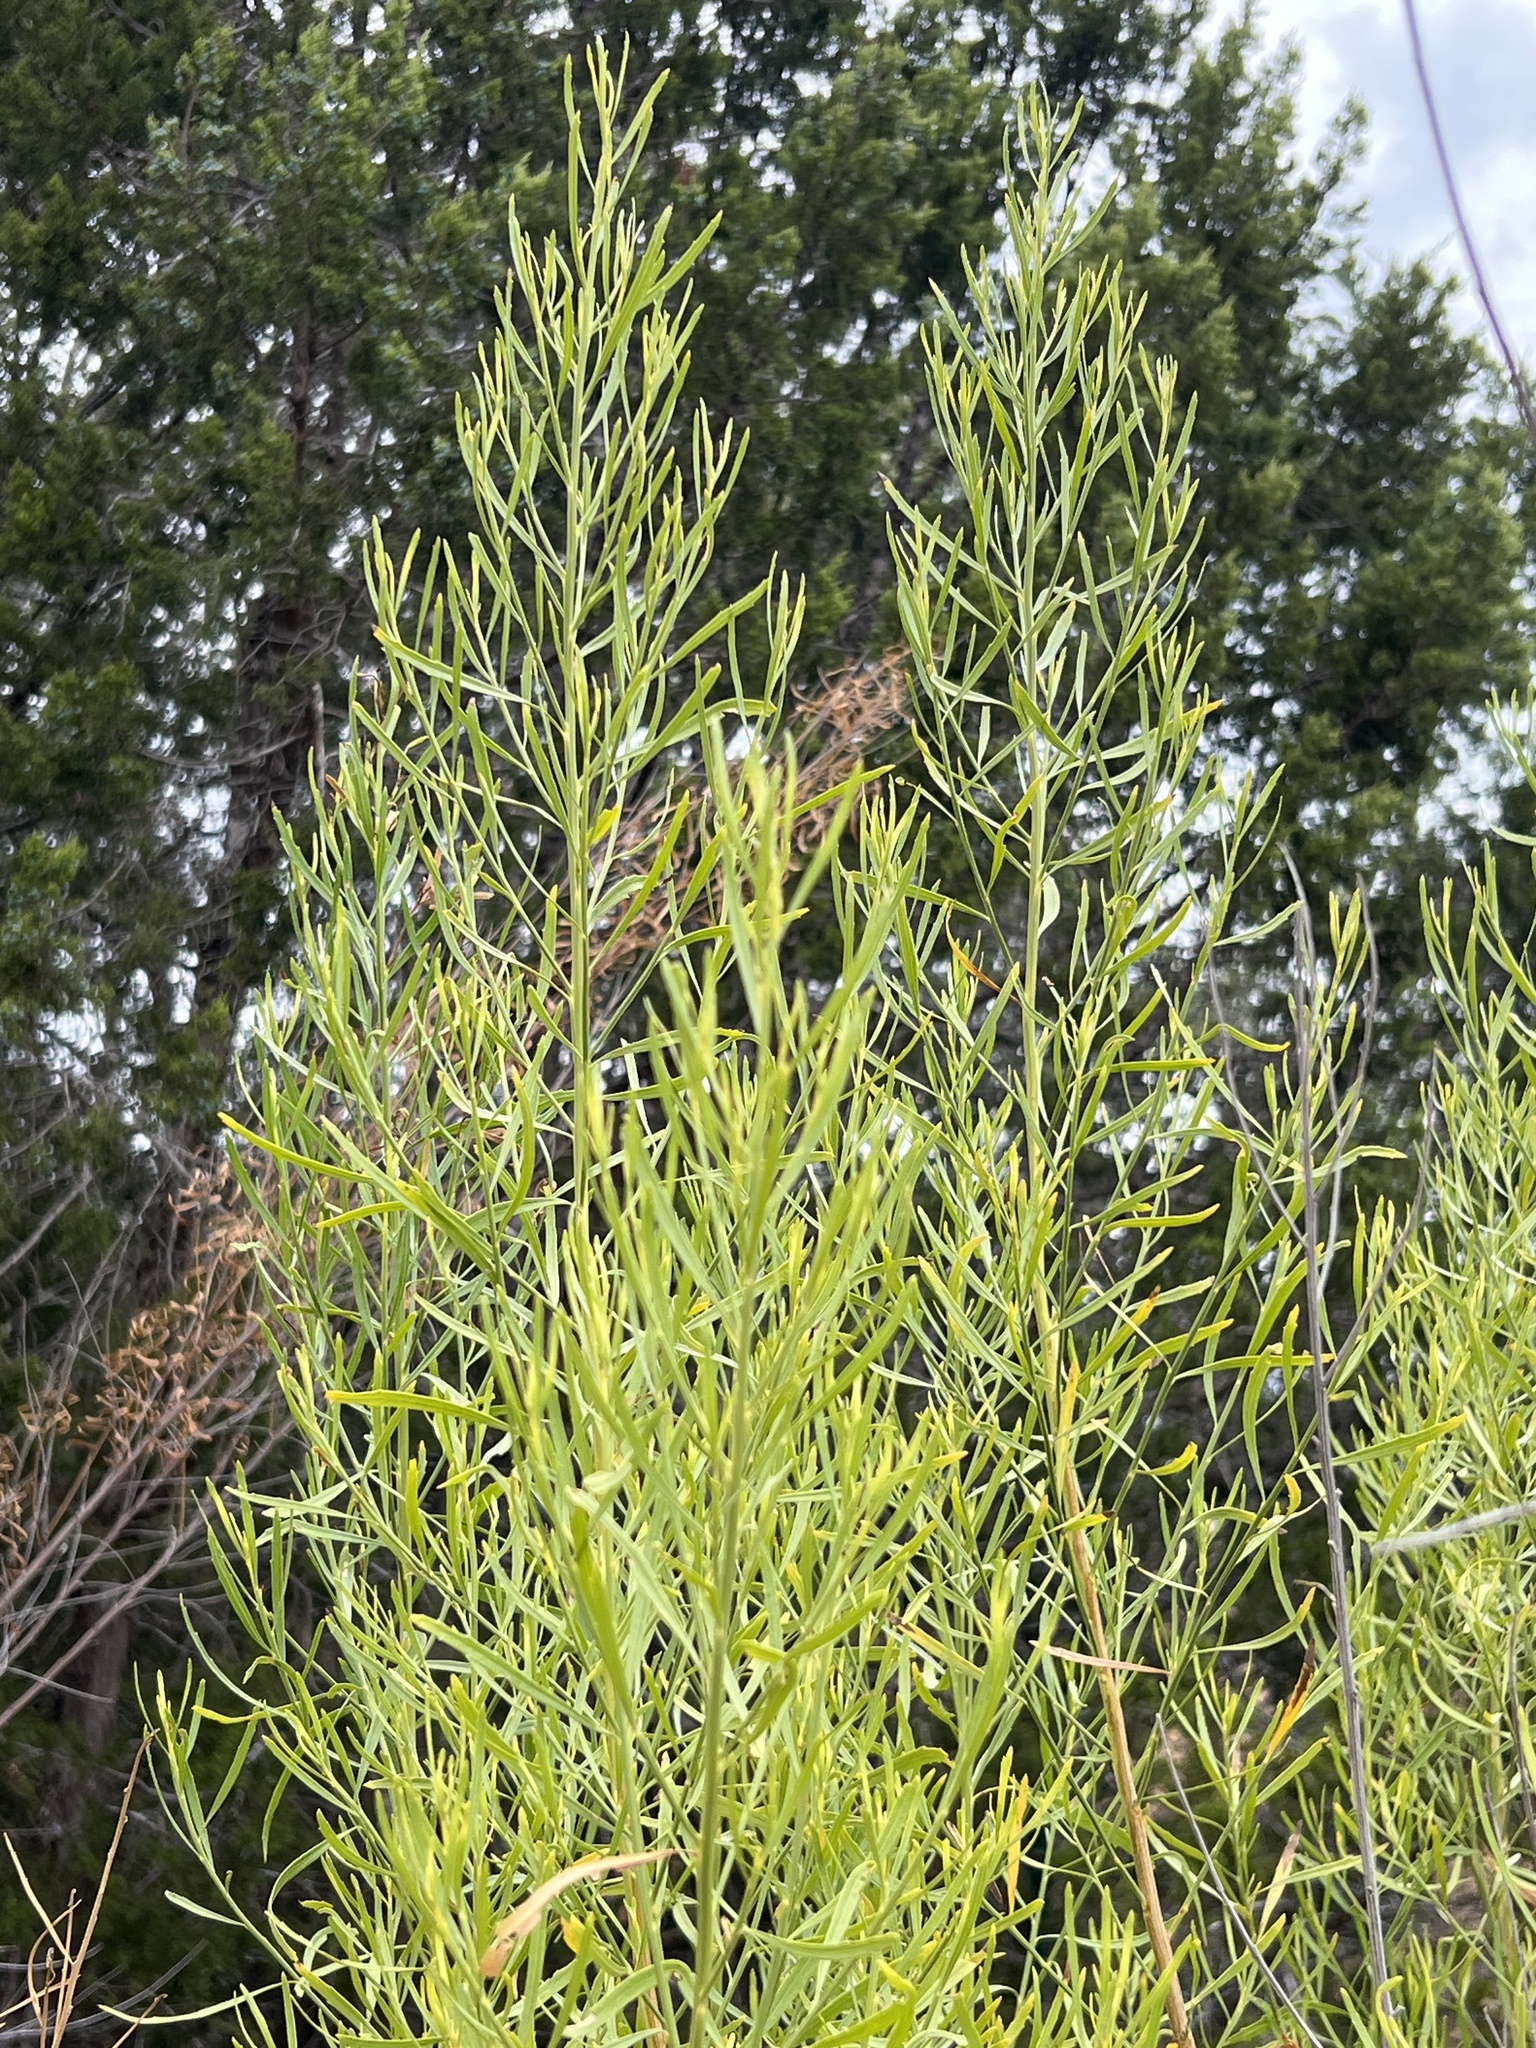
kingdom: Plantae
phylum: Tracheophyta
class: Magnoliopsida
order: Asterales
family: Asteraceae
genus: Baccharis
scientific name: Baccharis neglecta
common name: Roosevelt-weed
